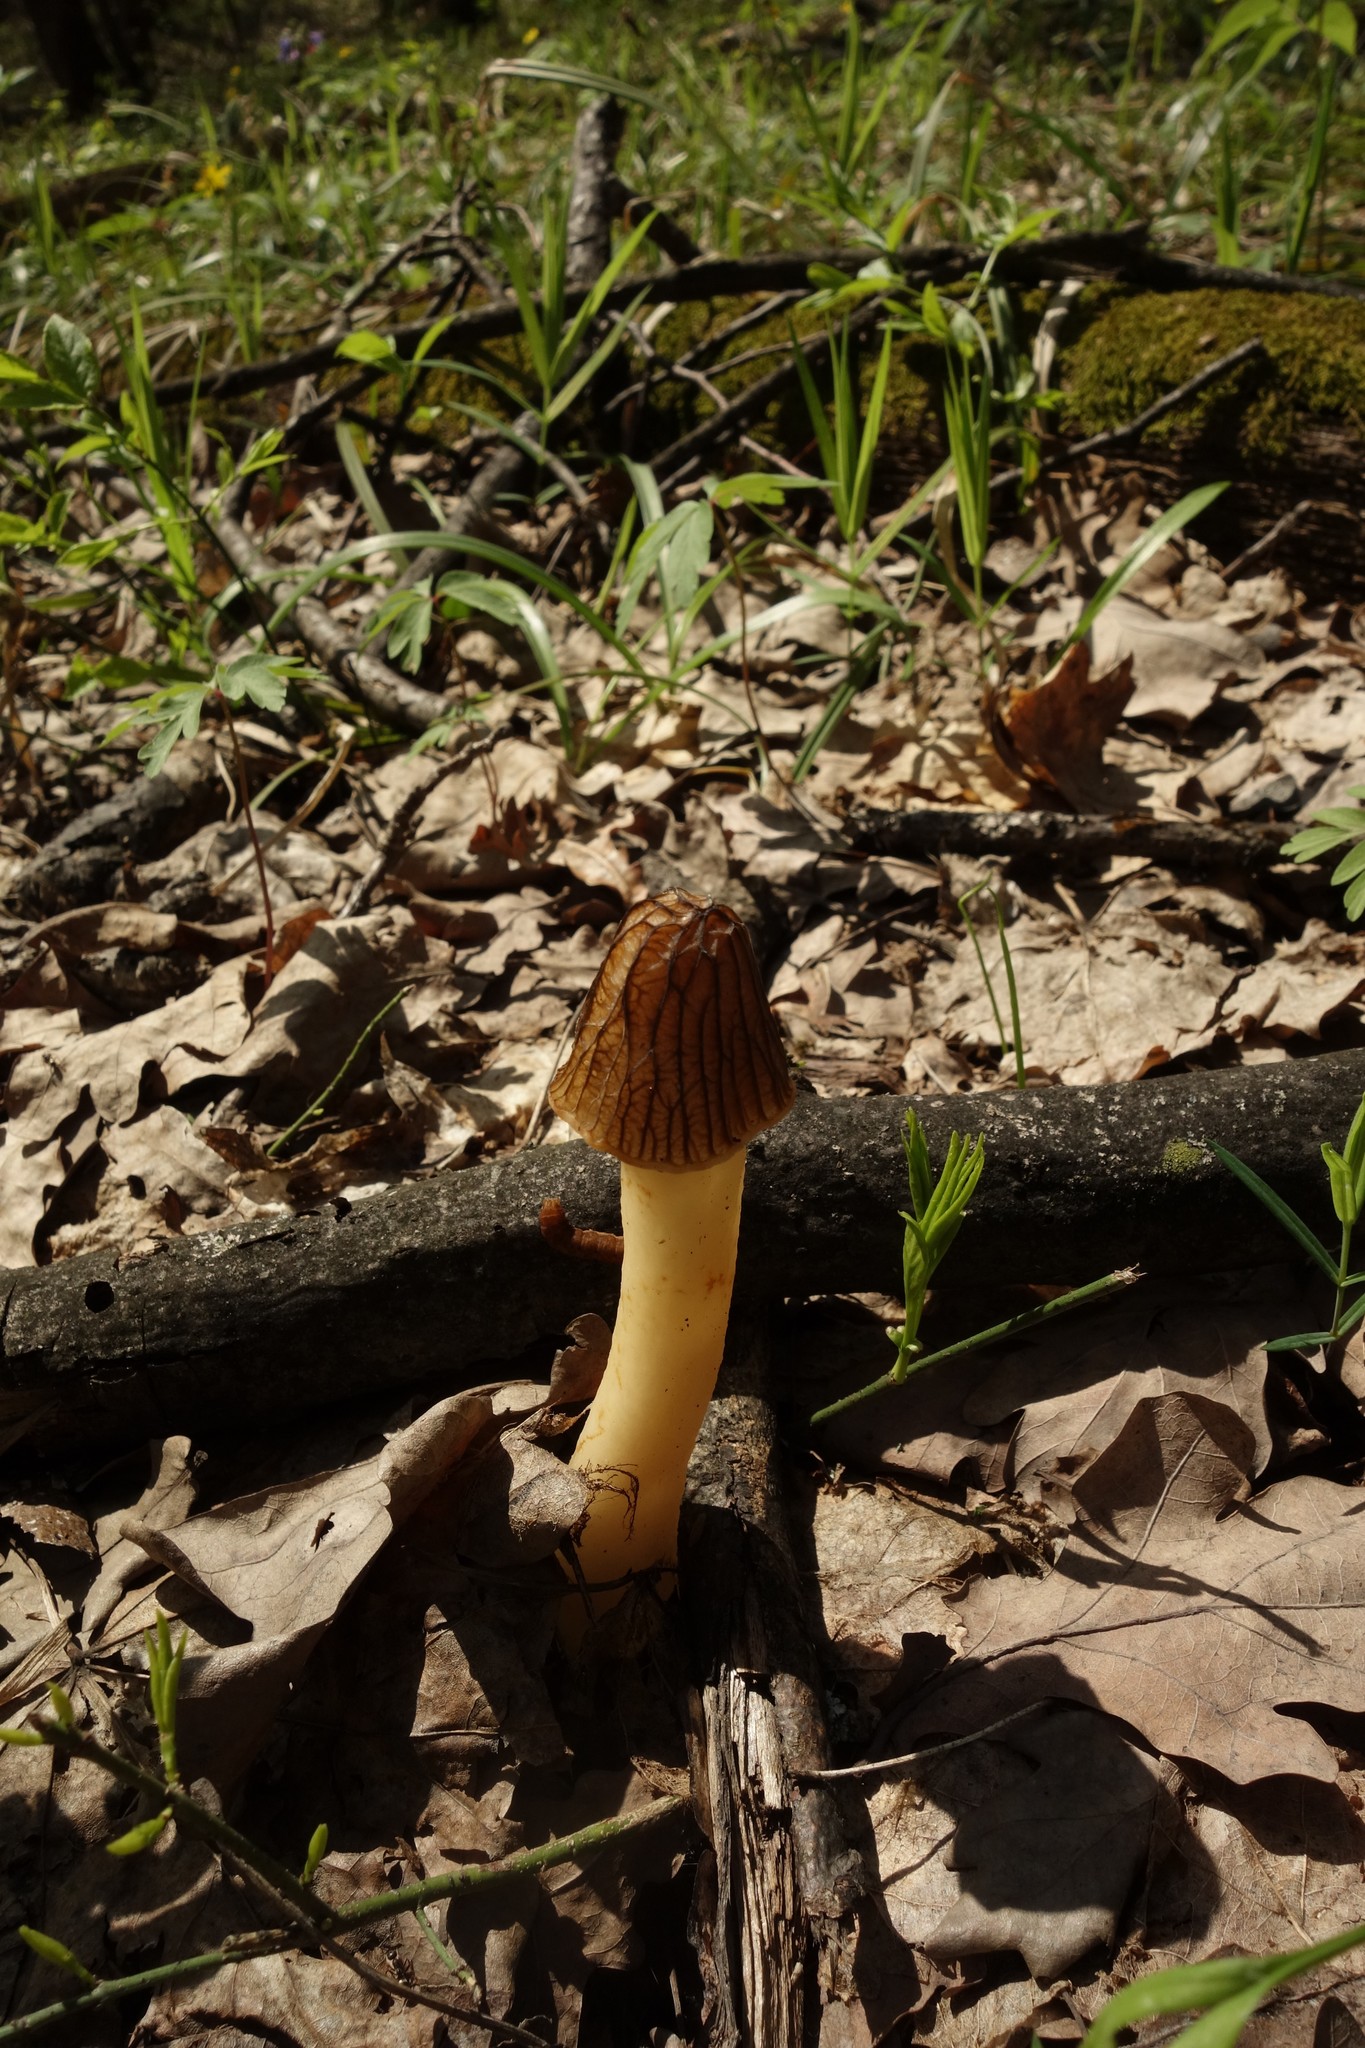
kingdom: Fungi
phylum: Ascomycota
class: Pezizomycetes
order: Pezizales
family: Morchellaceae
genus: Verpa
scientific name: Verpa bohemica
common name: Wrinkled thimble morel
